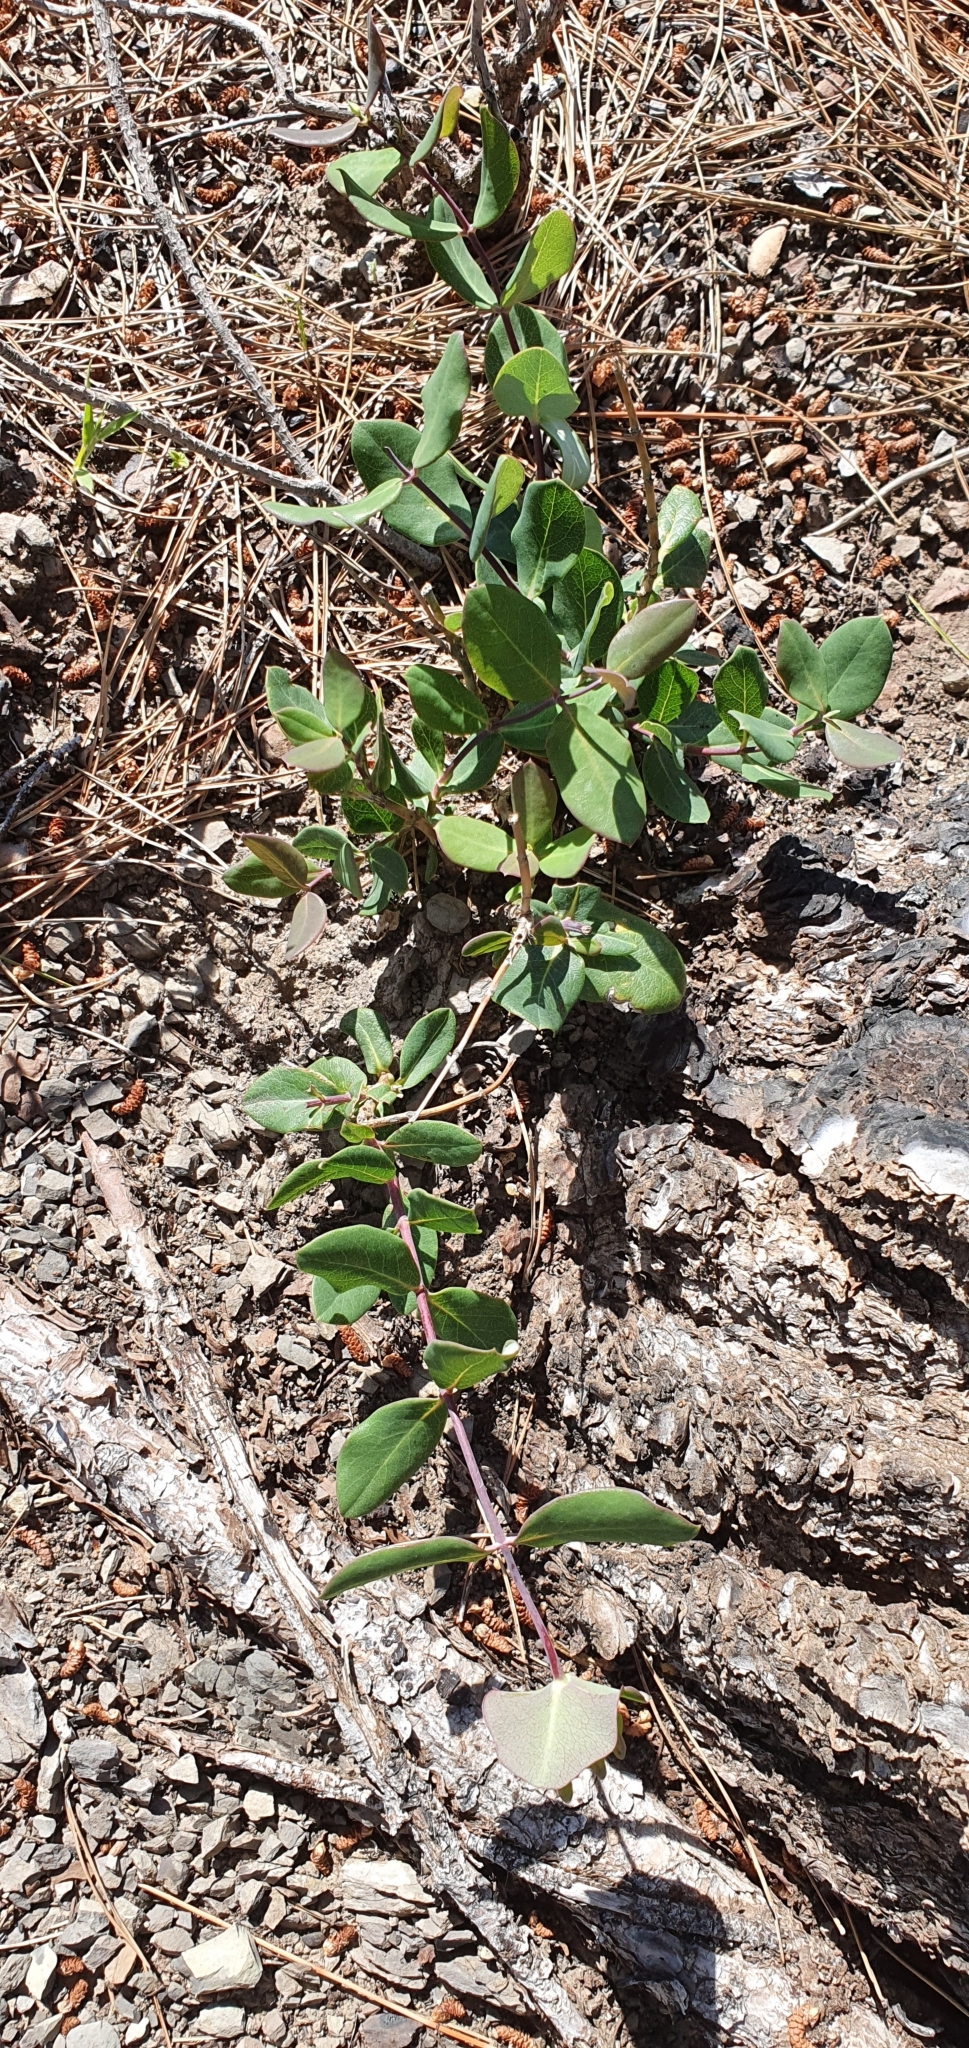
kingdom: Plantae
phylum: Tracheophyta
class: Magnoliopsida
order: Dipsacales
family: Caprifoliaceae
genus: Lonicera
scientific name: Lonicera implexa
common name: Minorca honeysuckle
